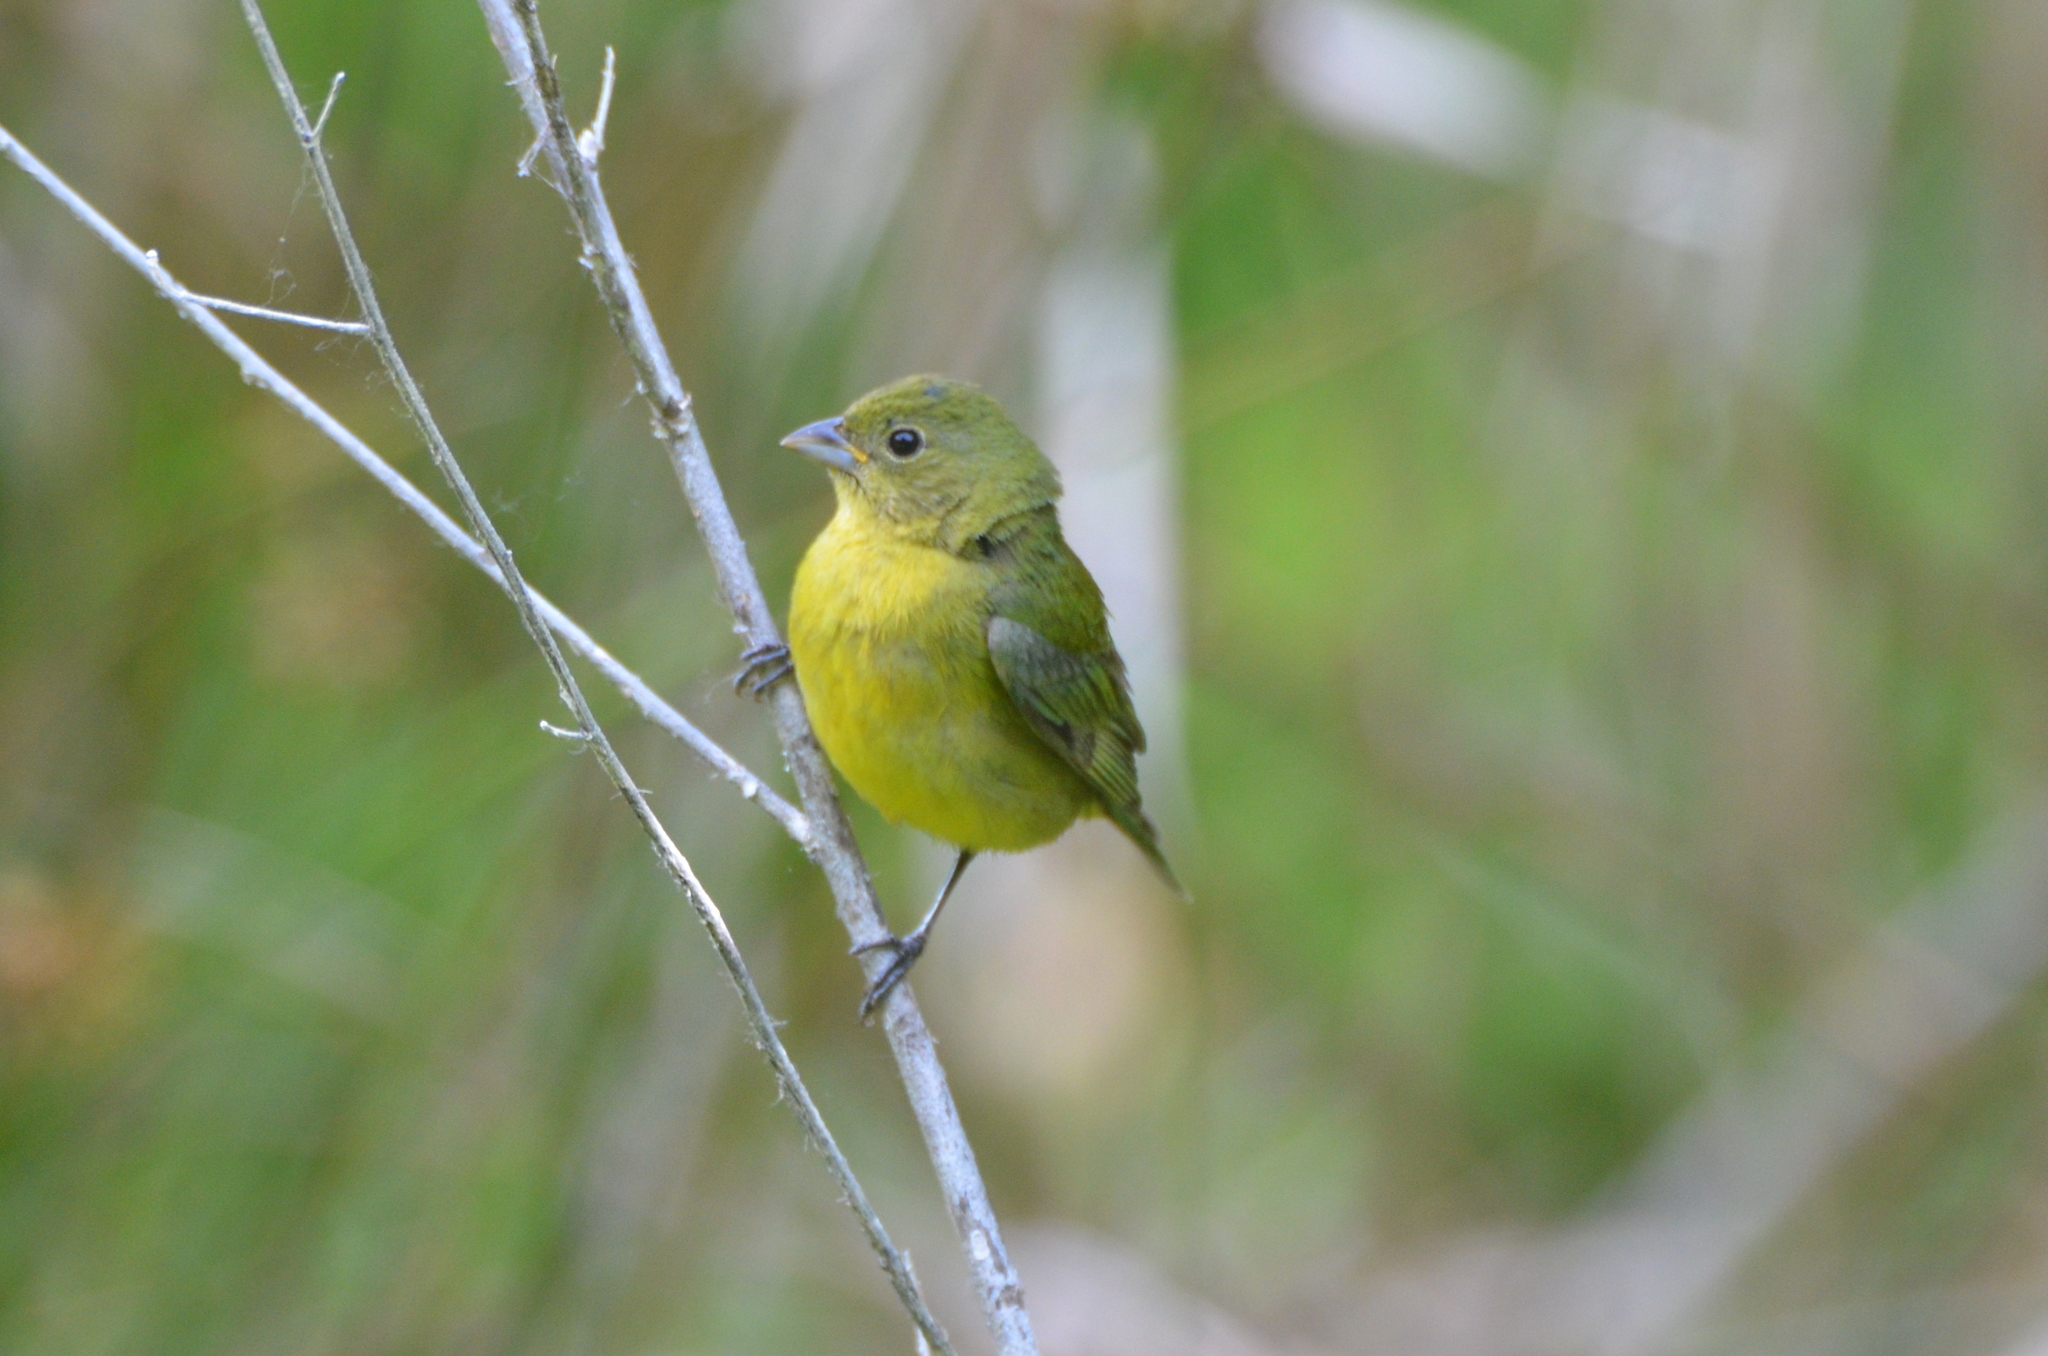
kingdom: Animalia
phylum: Chordata
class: Aves
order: Passeriformes
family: Cardinalidae
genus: Passerina
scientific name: Passerina ciris
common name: Painted bunting
